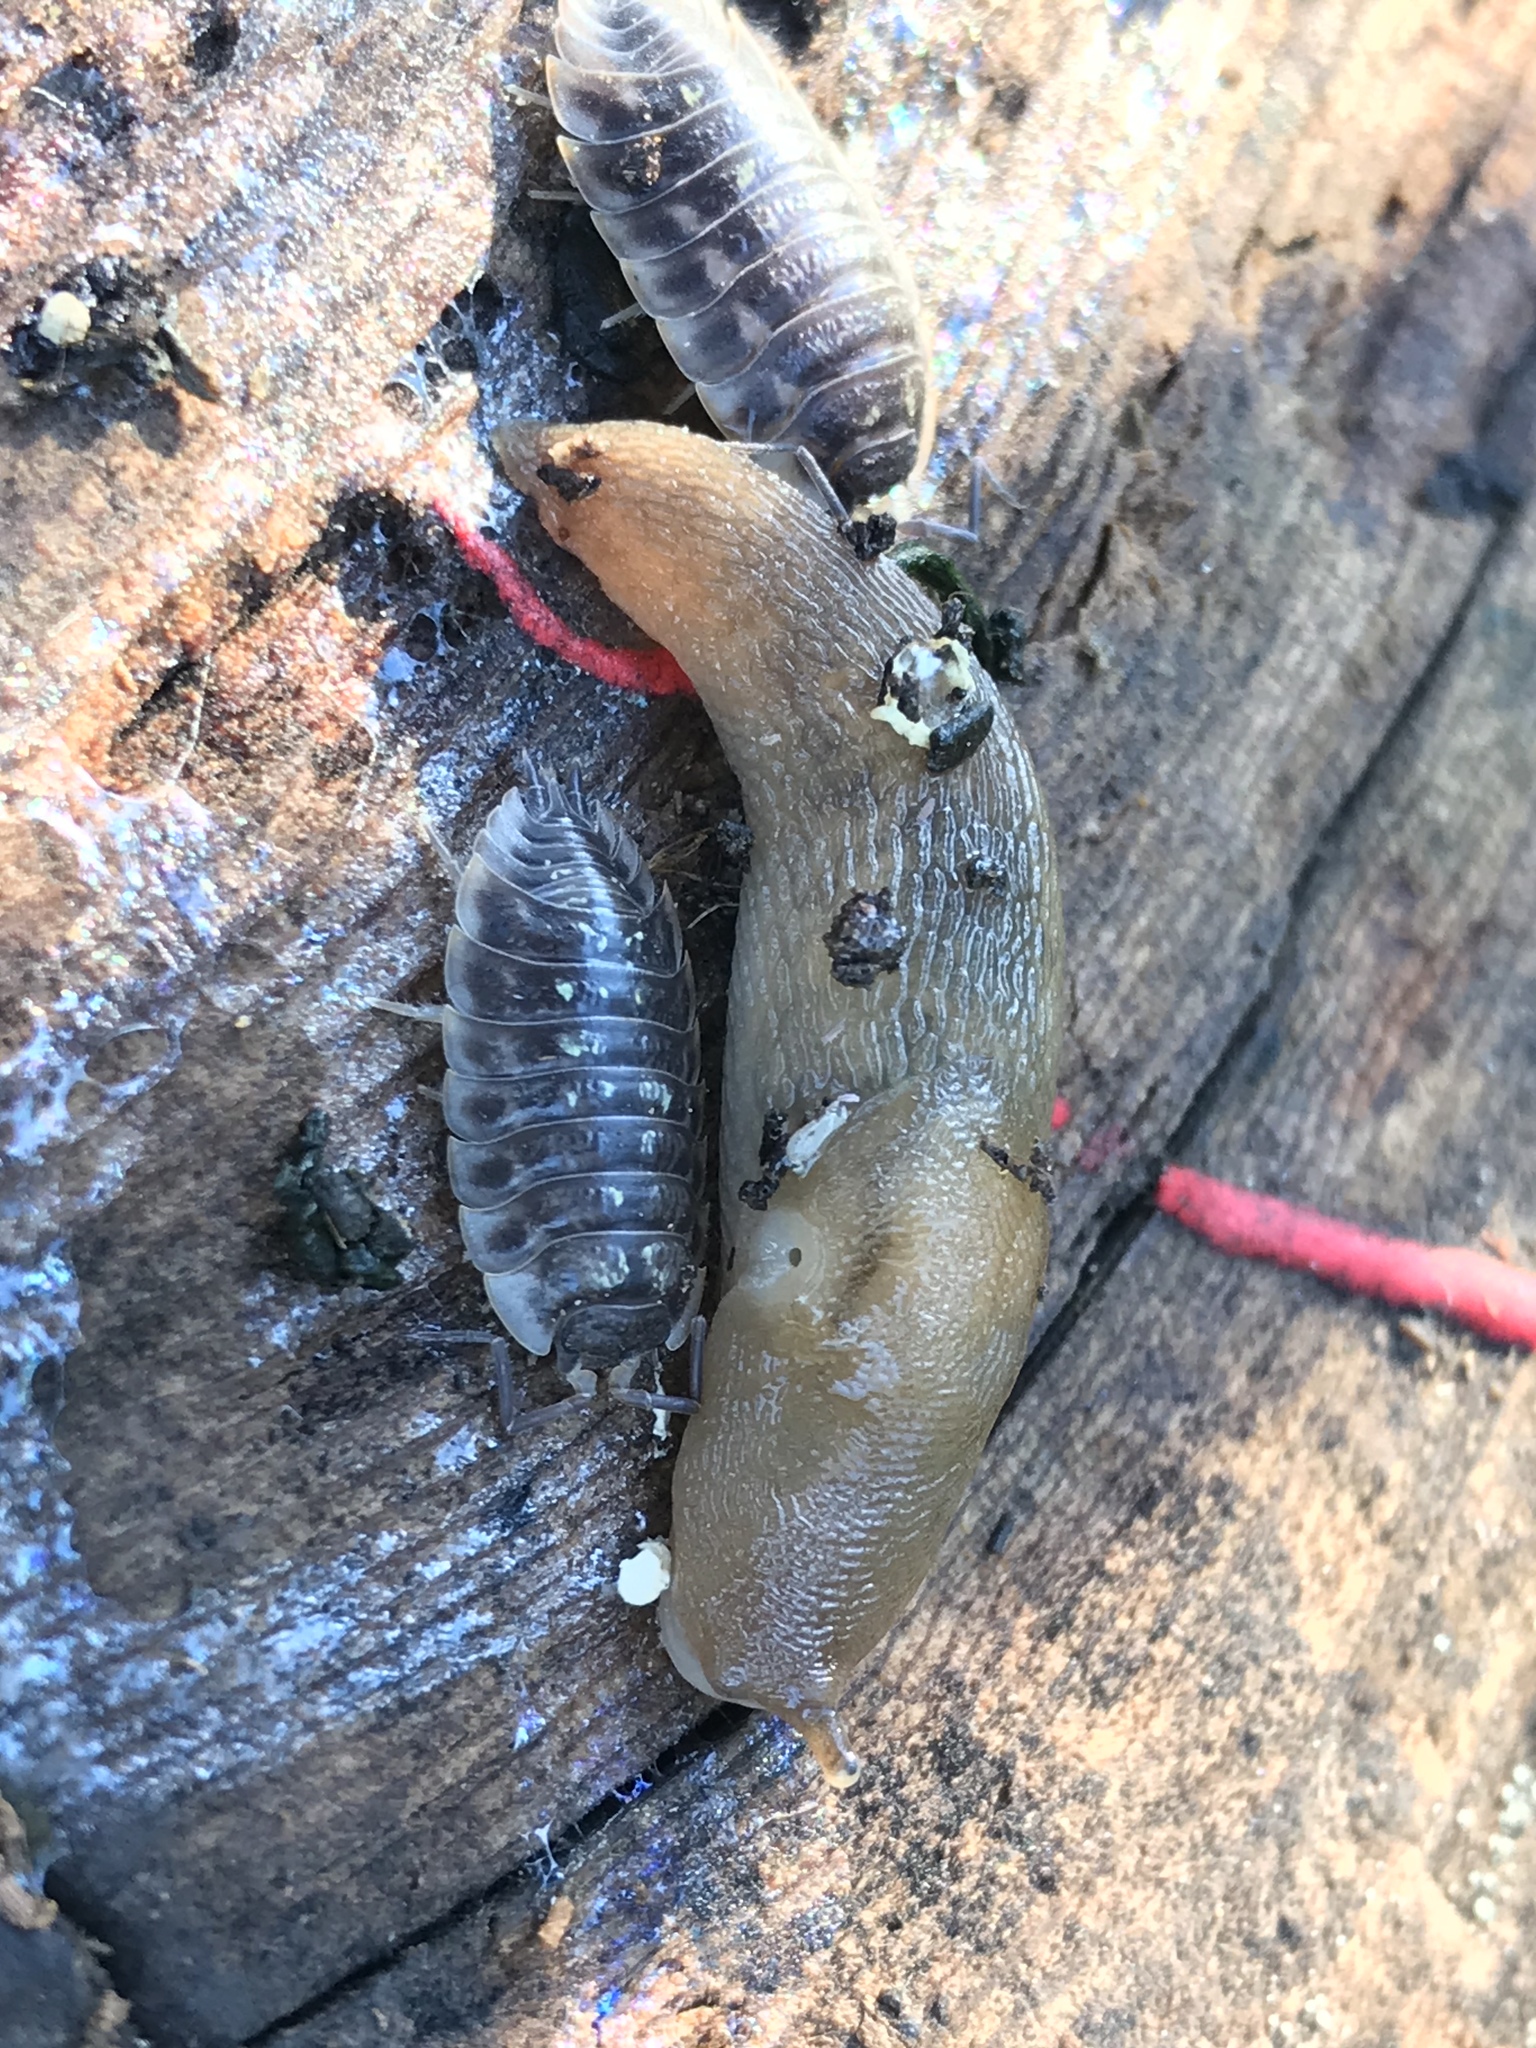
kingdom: Animalia
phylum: Arthropoda
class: Malacostraca
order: Isopoda
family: Oniscidae
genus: Oniscus
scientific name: Oniscus asellus
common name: Common shiny woodlouse
